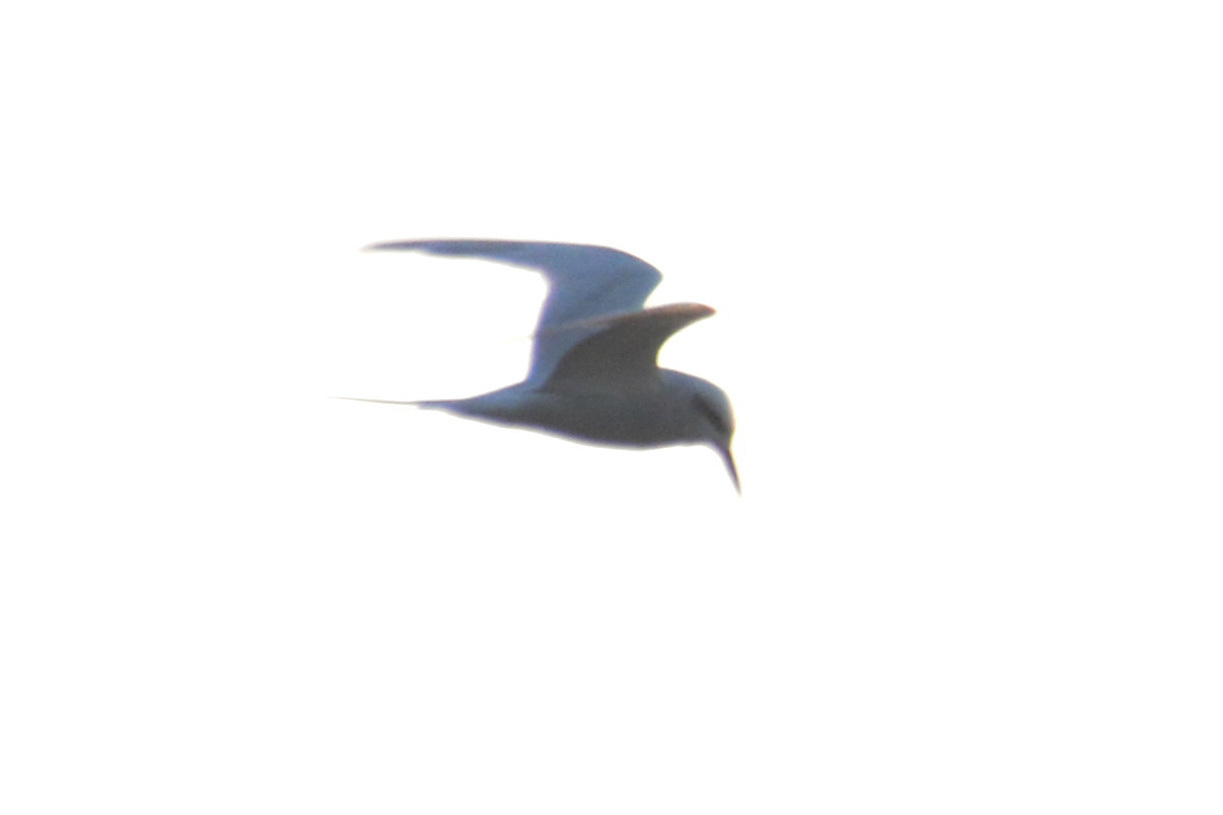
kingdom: Animalia
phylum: Chordata
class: Aves
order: Charadriiformes
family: Laridae
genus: Sterna
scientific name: Sterna trudeaui
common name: Snowy-crowned tern
